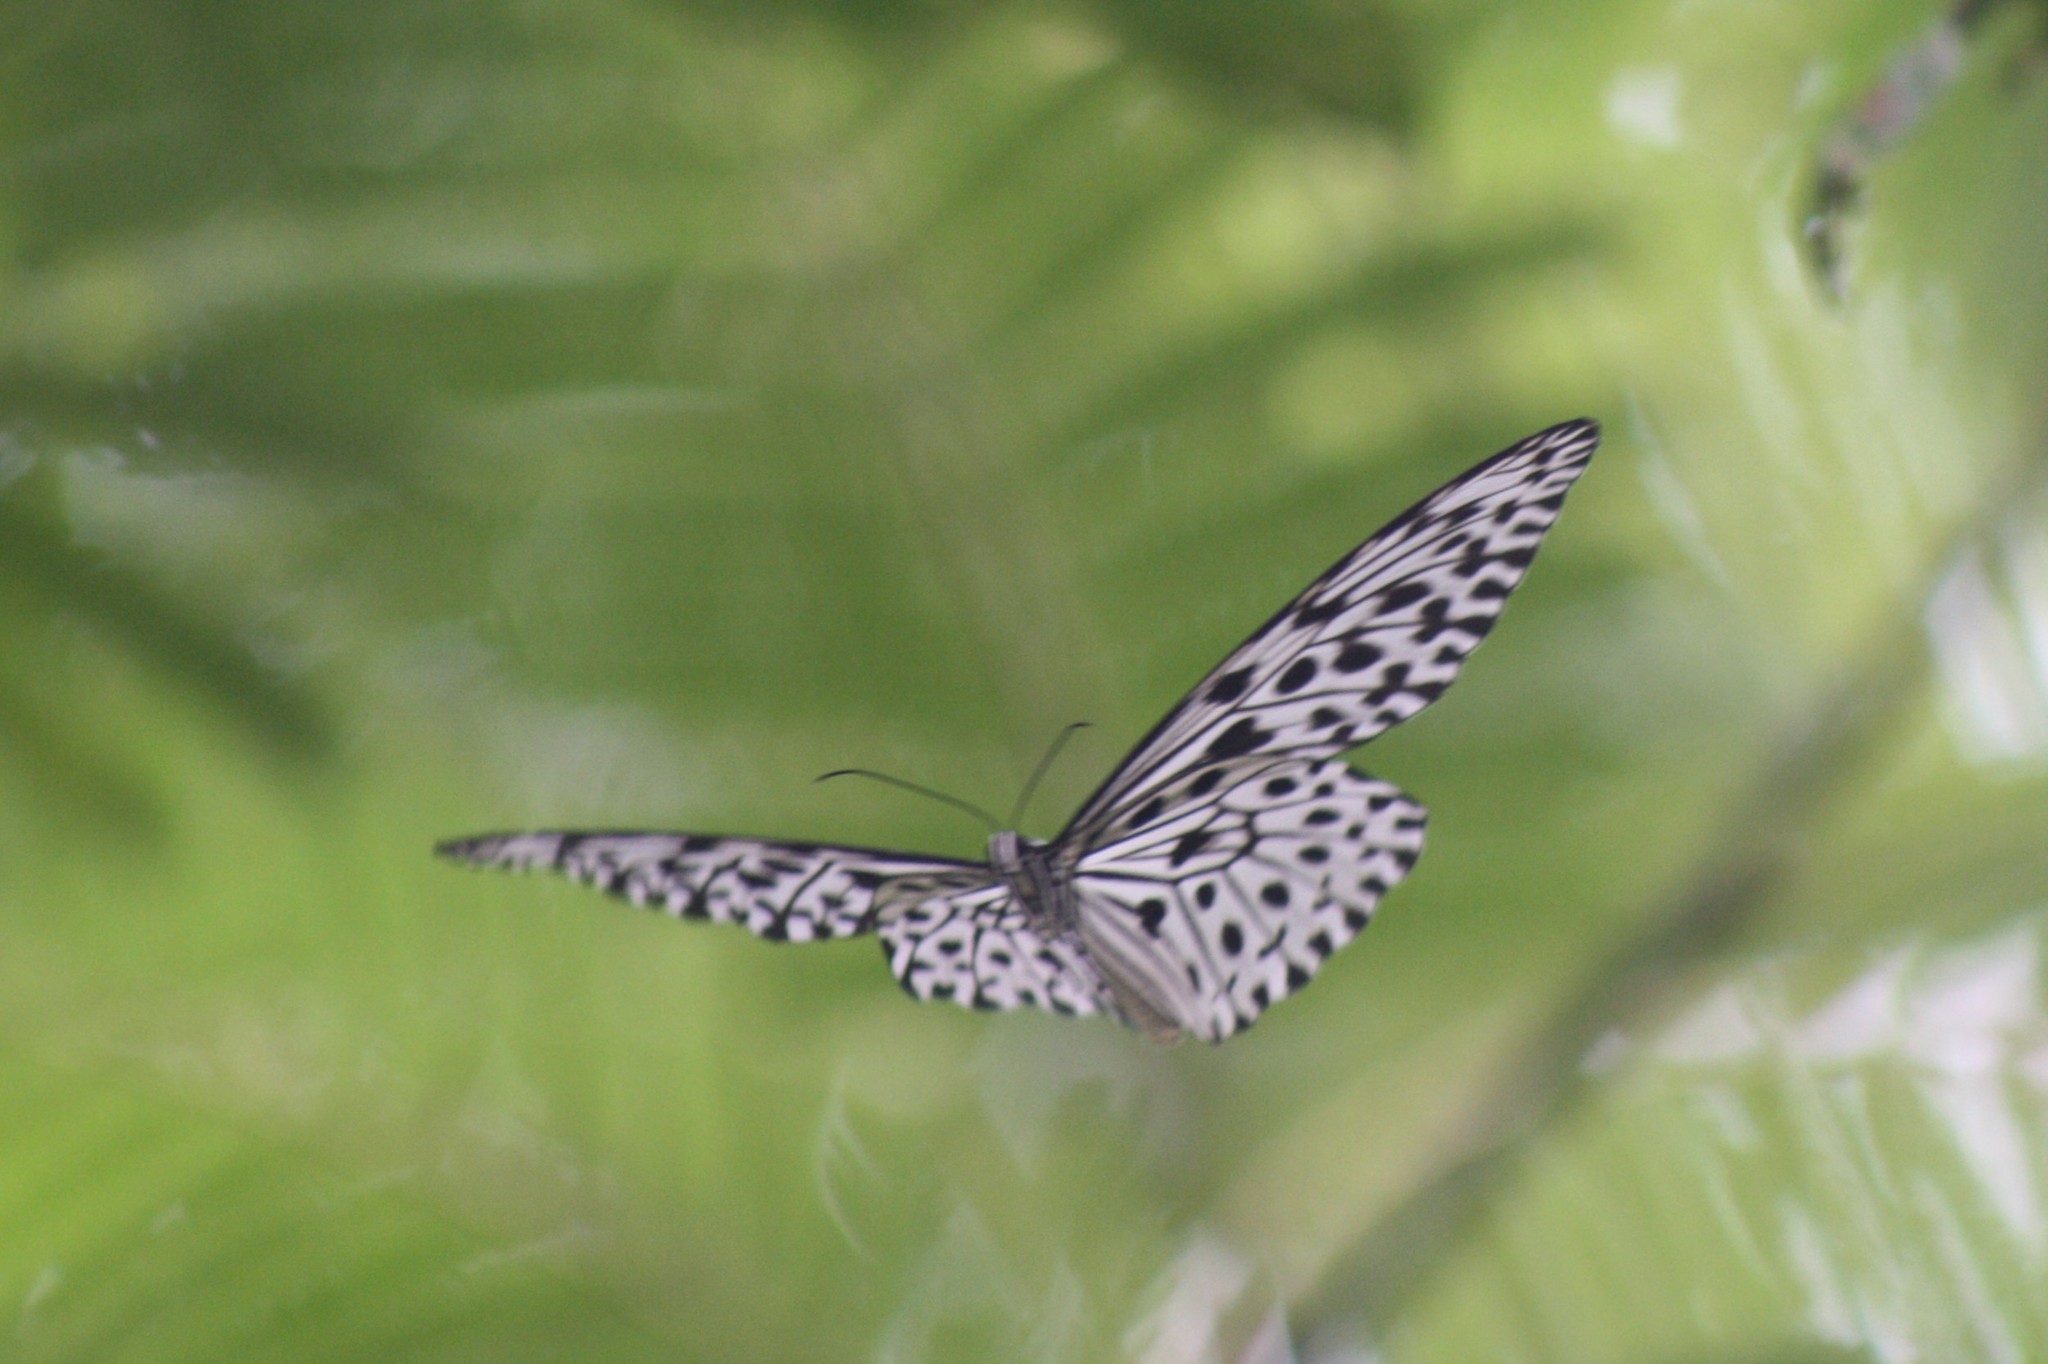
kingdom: Animalia
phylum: Arthropoda
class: Insecta
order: Lepidoptera
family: Nymphalidae
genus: Idea
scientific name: Idea malabarica
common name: Malabar tree-nymph
